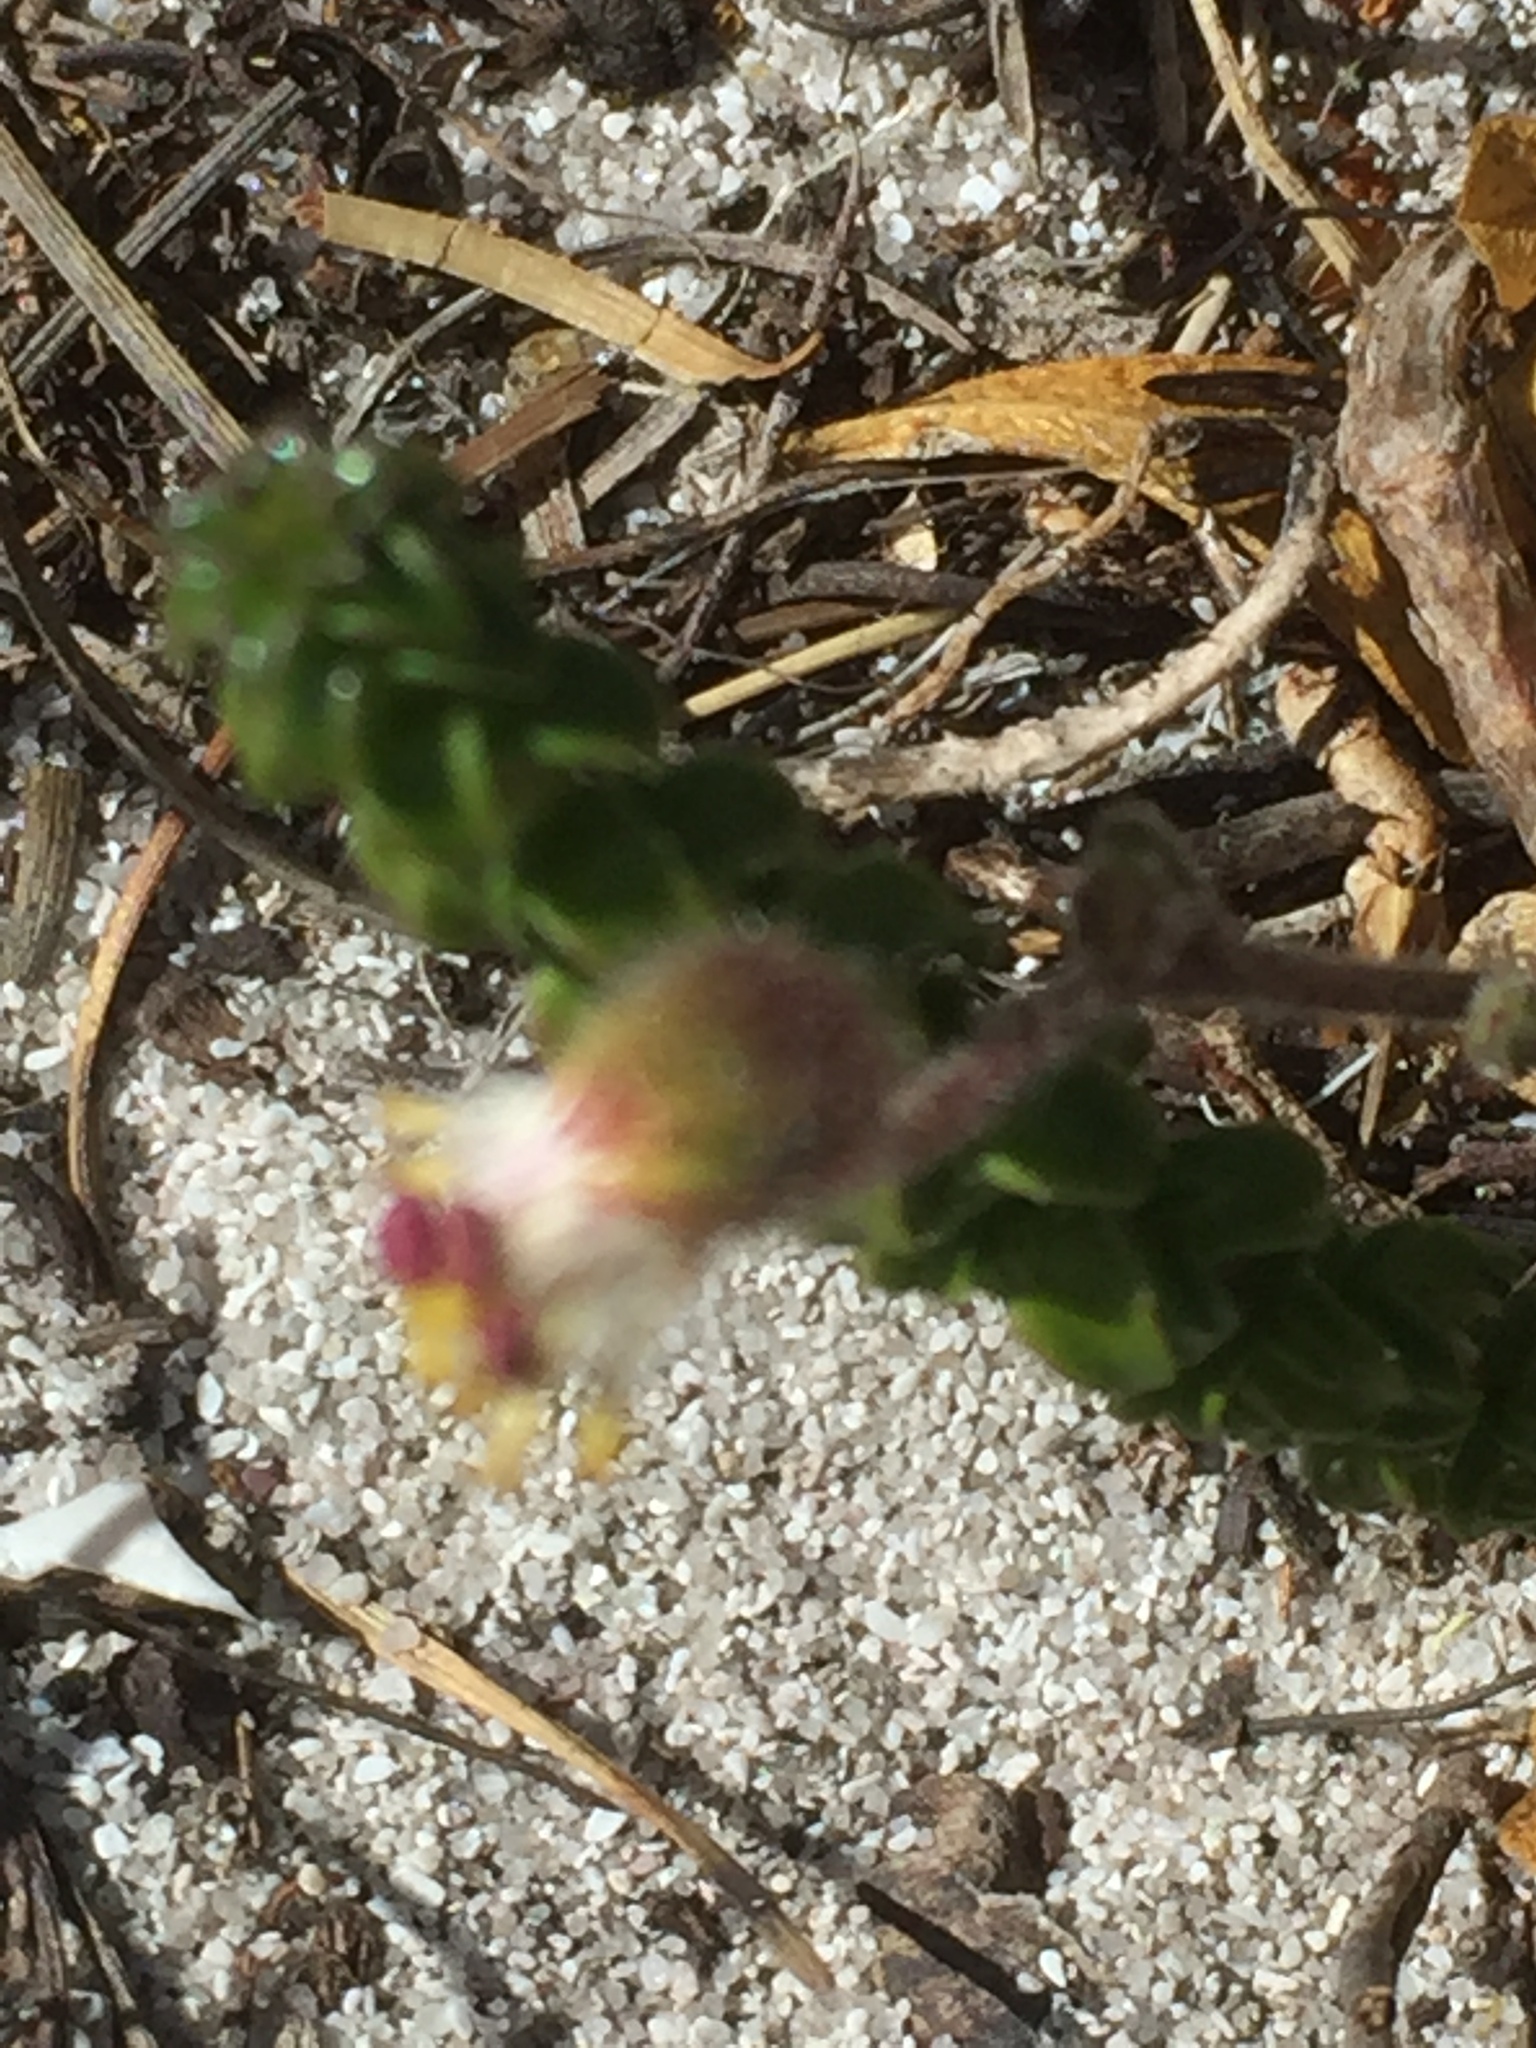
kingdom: Plantae
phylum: Tracheophyta
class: Magnoliopsida
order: Asterales
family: Asteraceae
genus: Senecio
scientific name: Senecio arenarius
